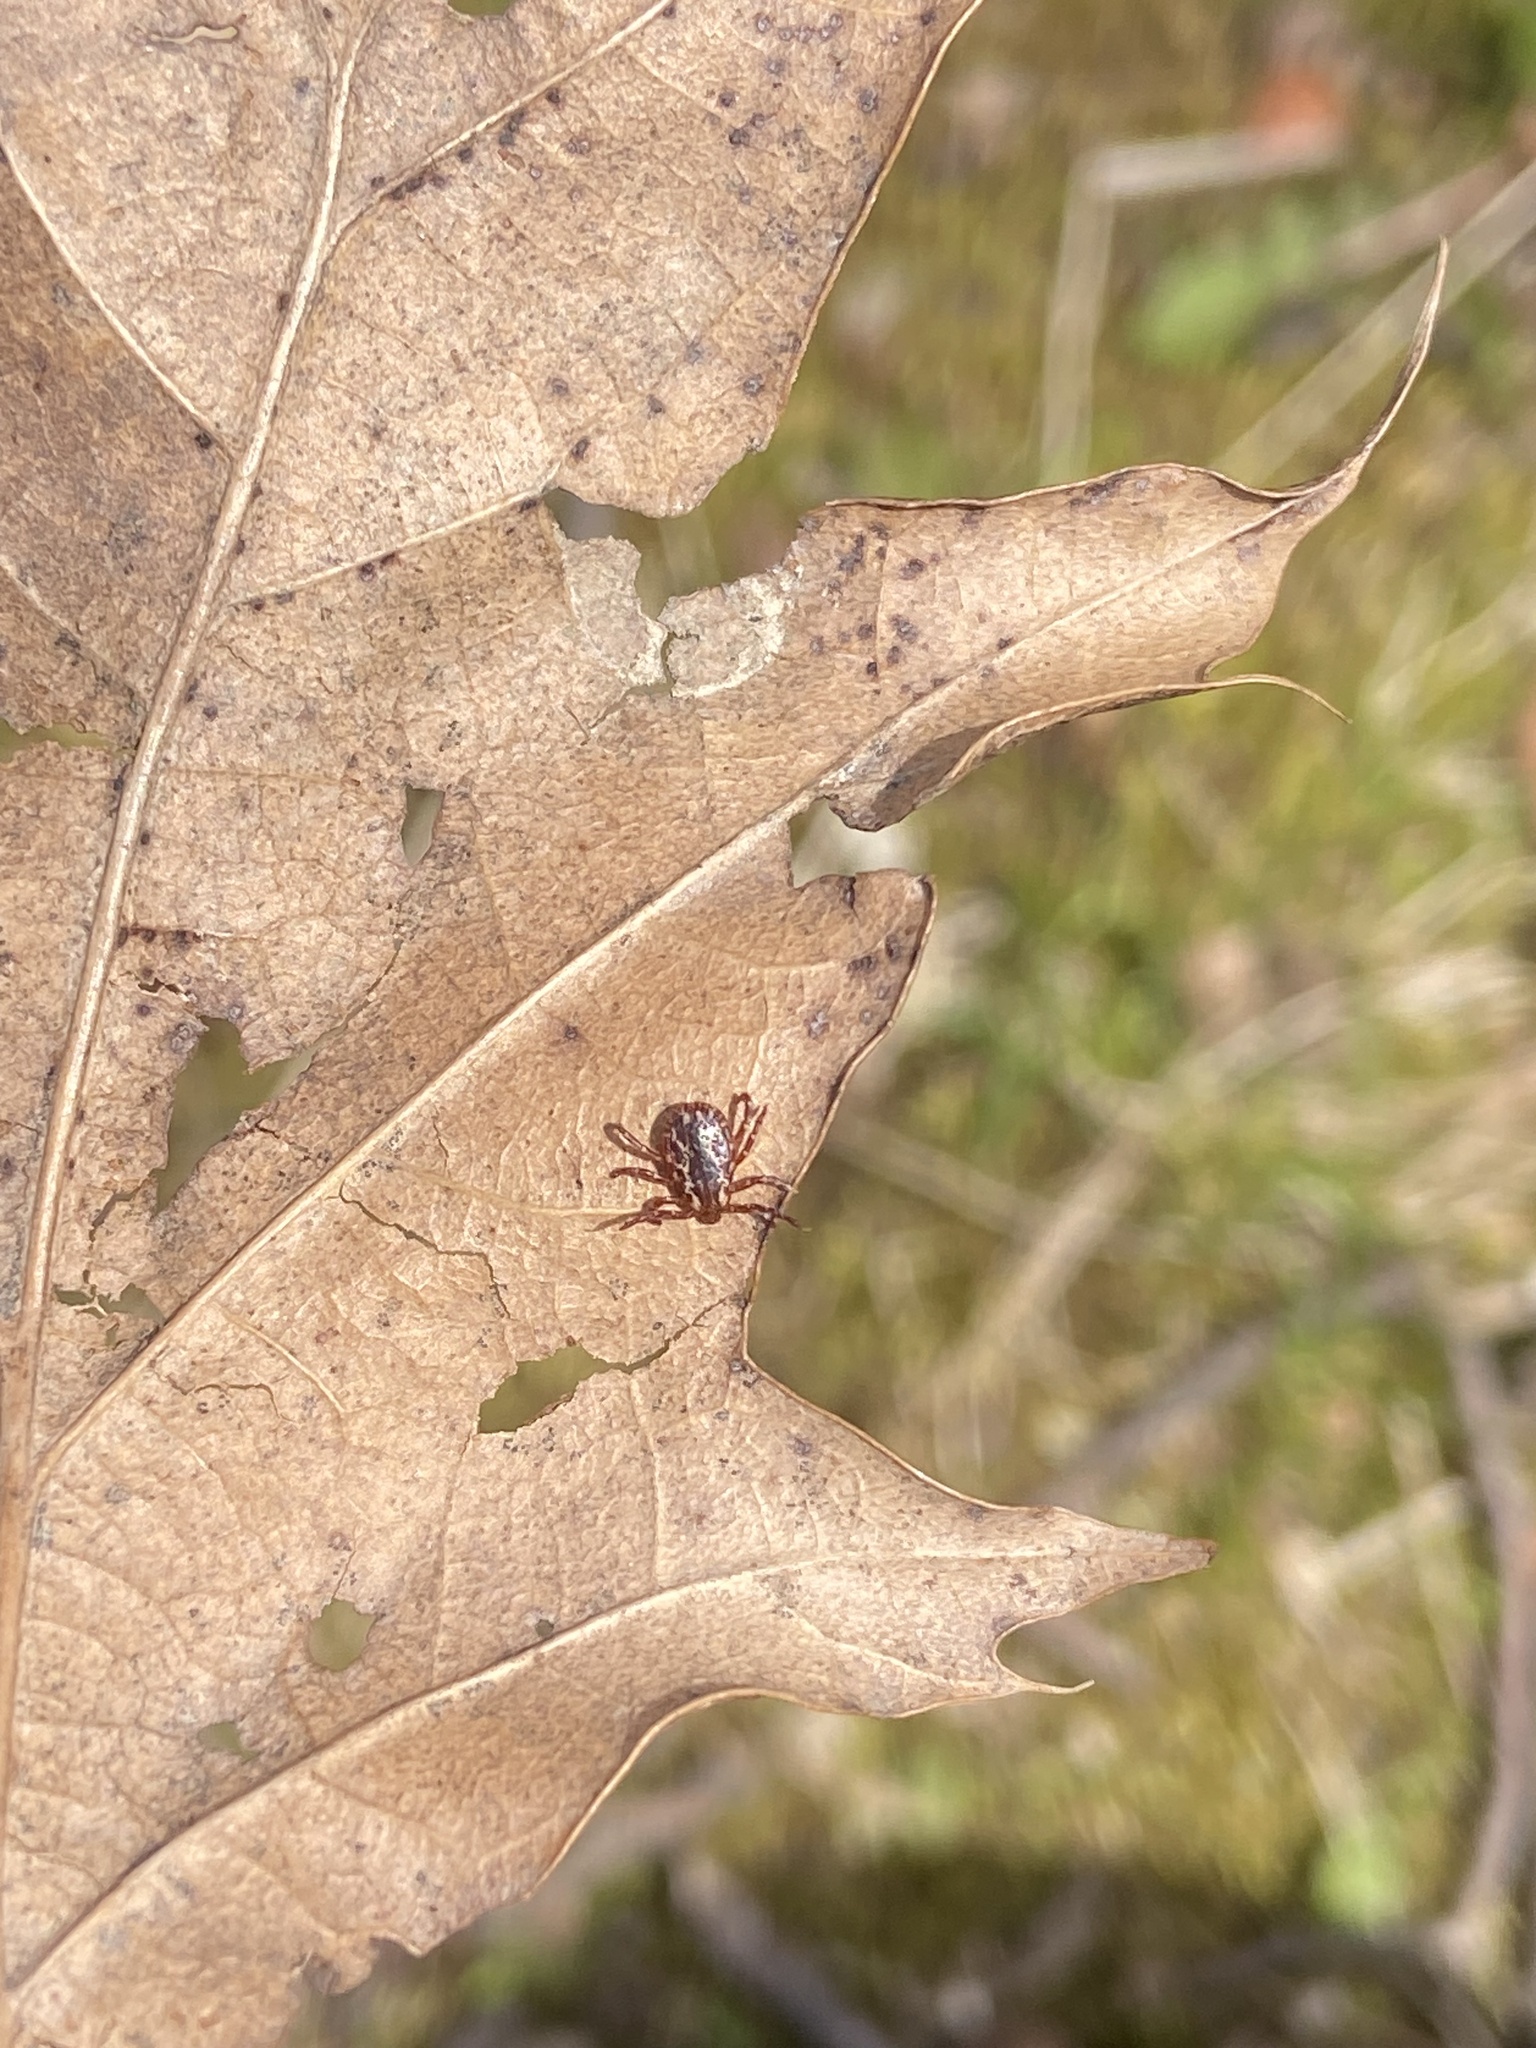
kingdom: Animalia
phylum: Arthropoda
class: Arachnida
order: Ixodida
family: Ixodidae
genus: Dermacentor
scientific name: Dermacentor variabilis
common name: American dog tick
